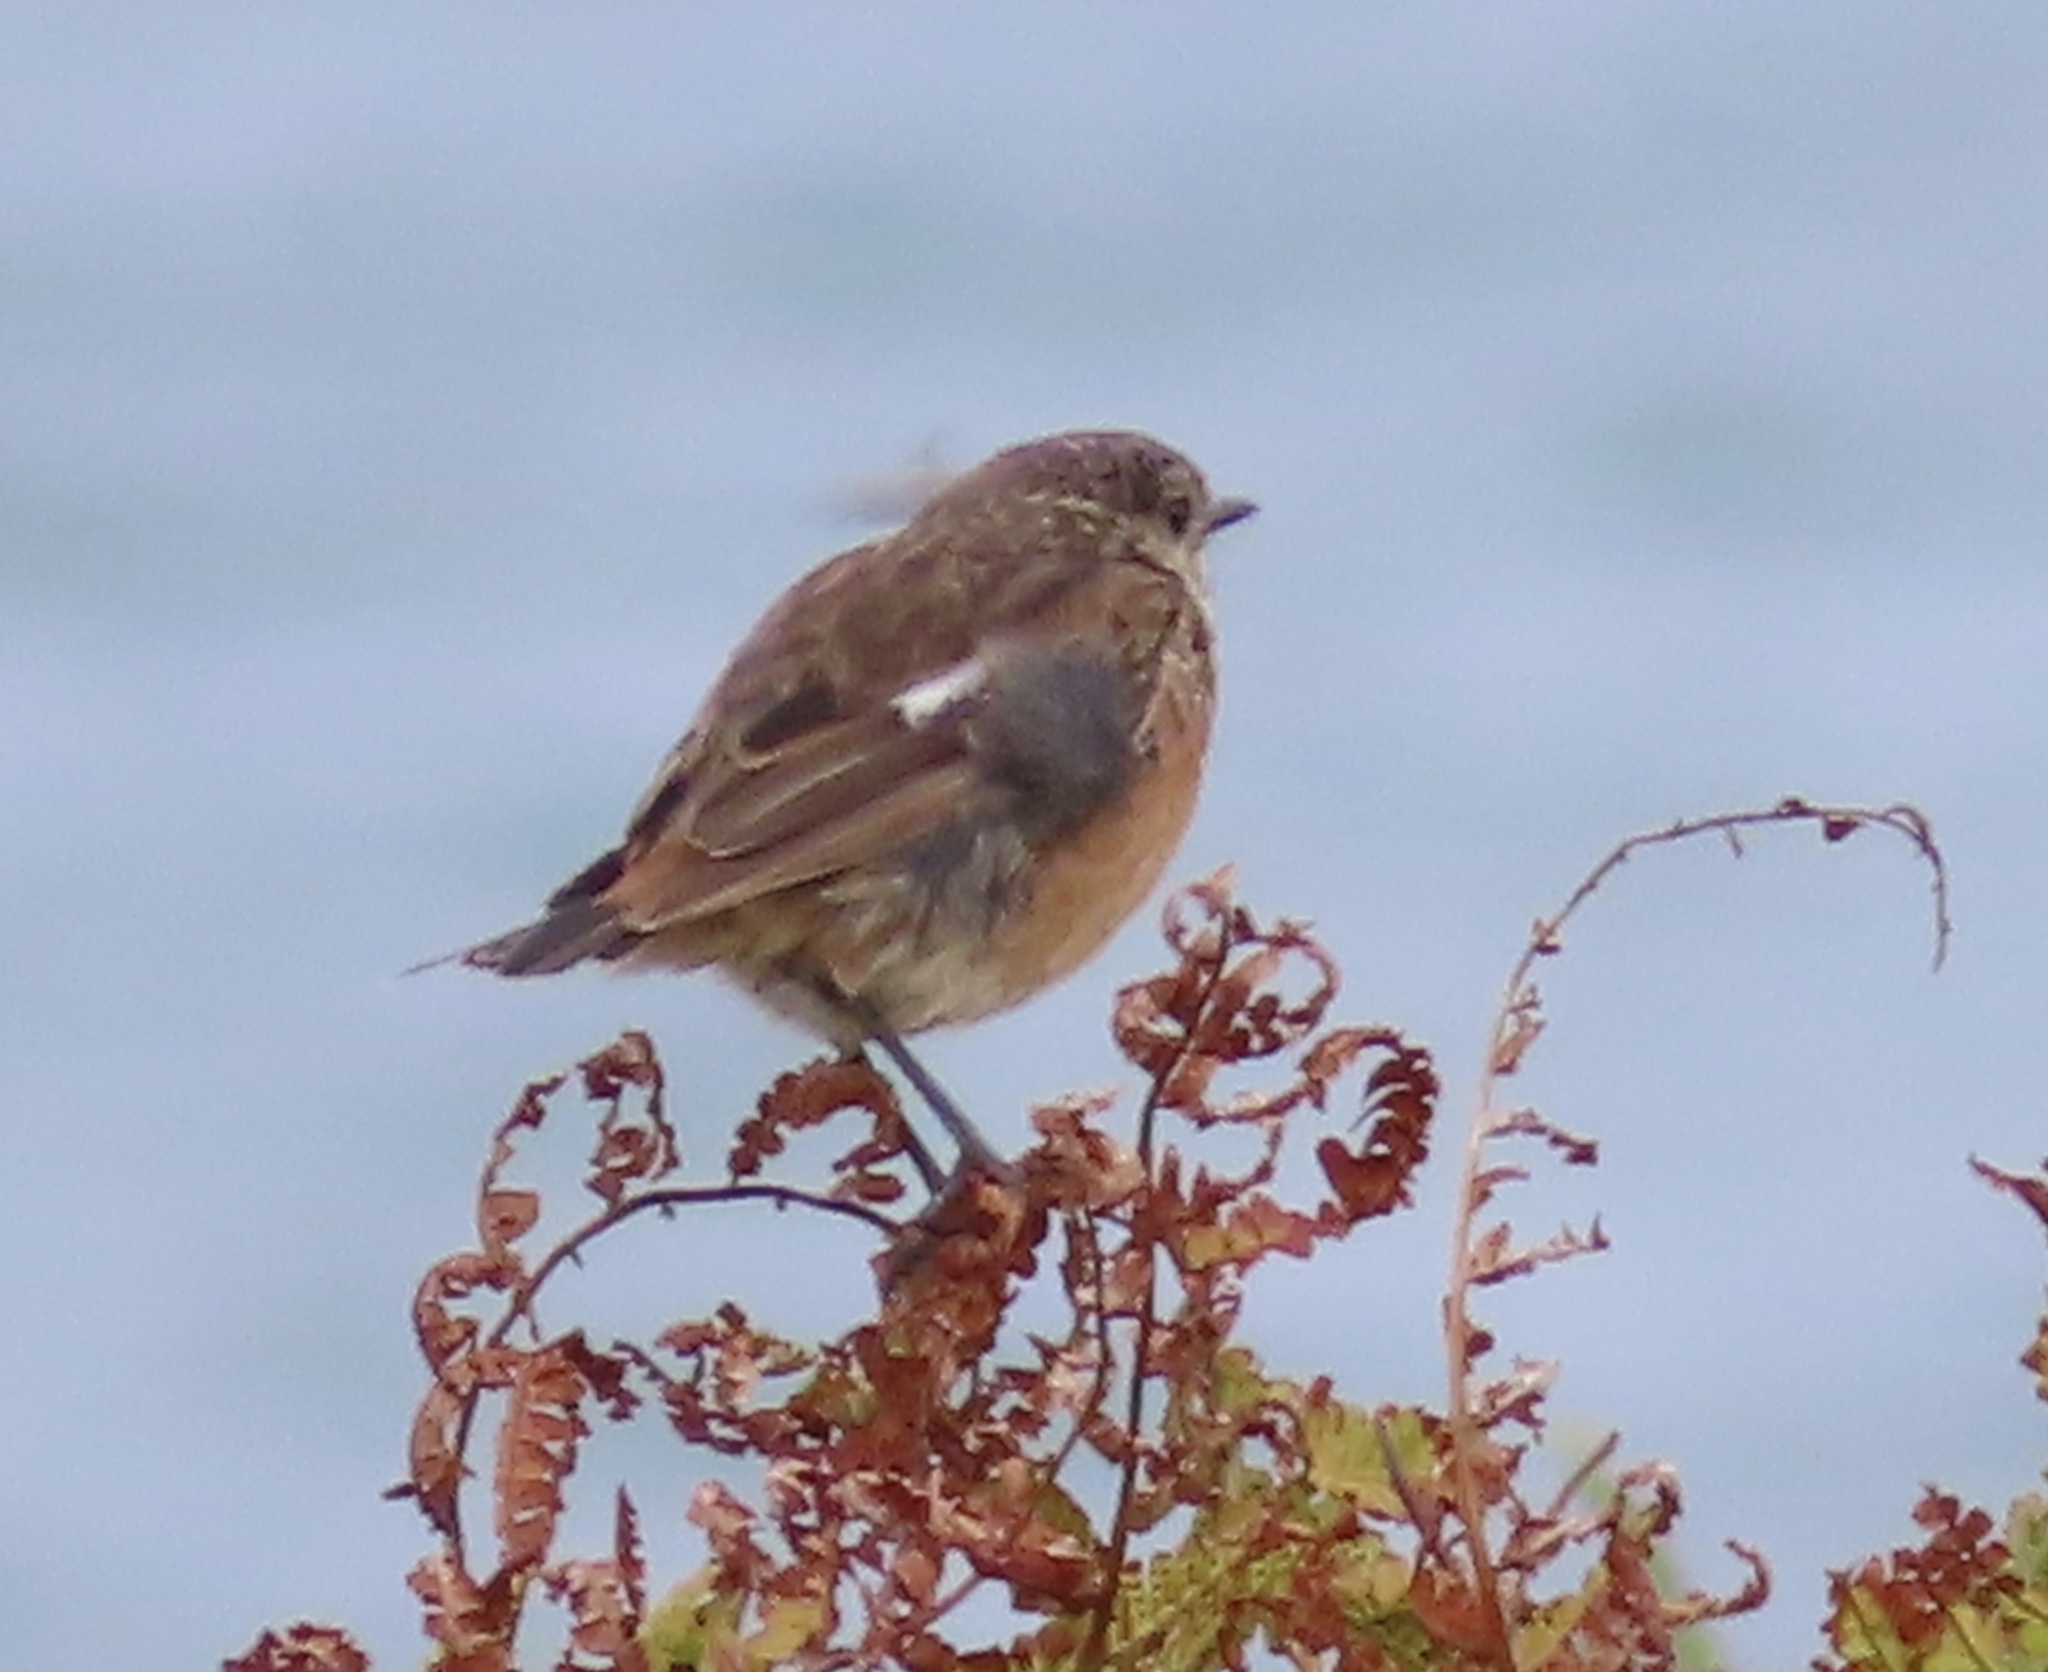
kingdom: Animalia
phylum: Chordata
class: Aves
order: Passeriformes
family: Muscicapidae
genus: Saxicola
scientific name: Saxicola rubicola
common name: European stonechat
